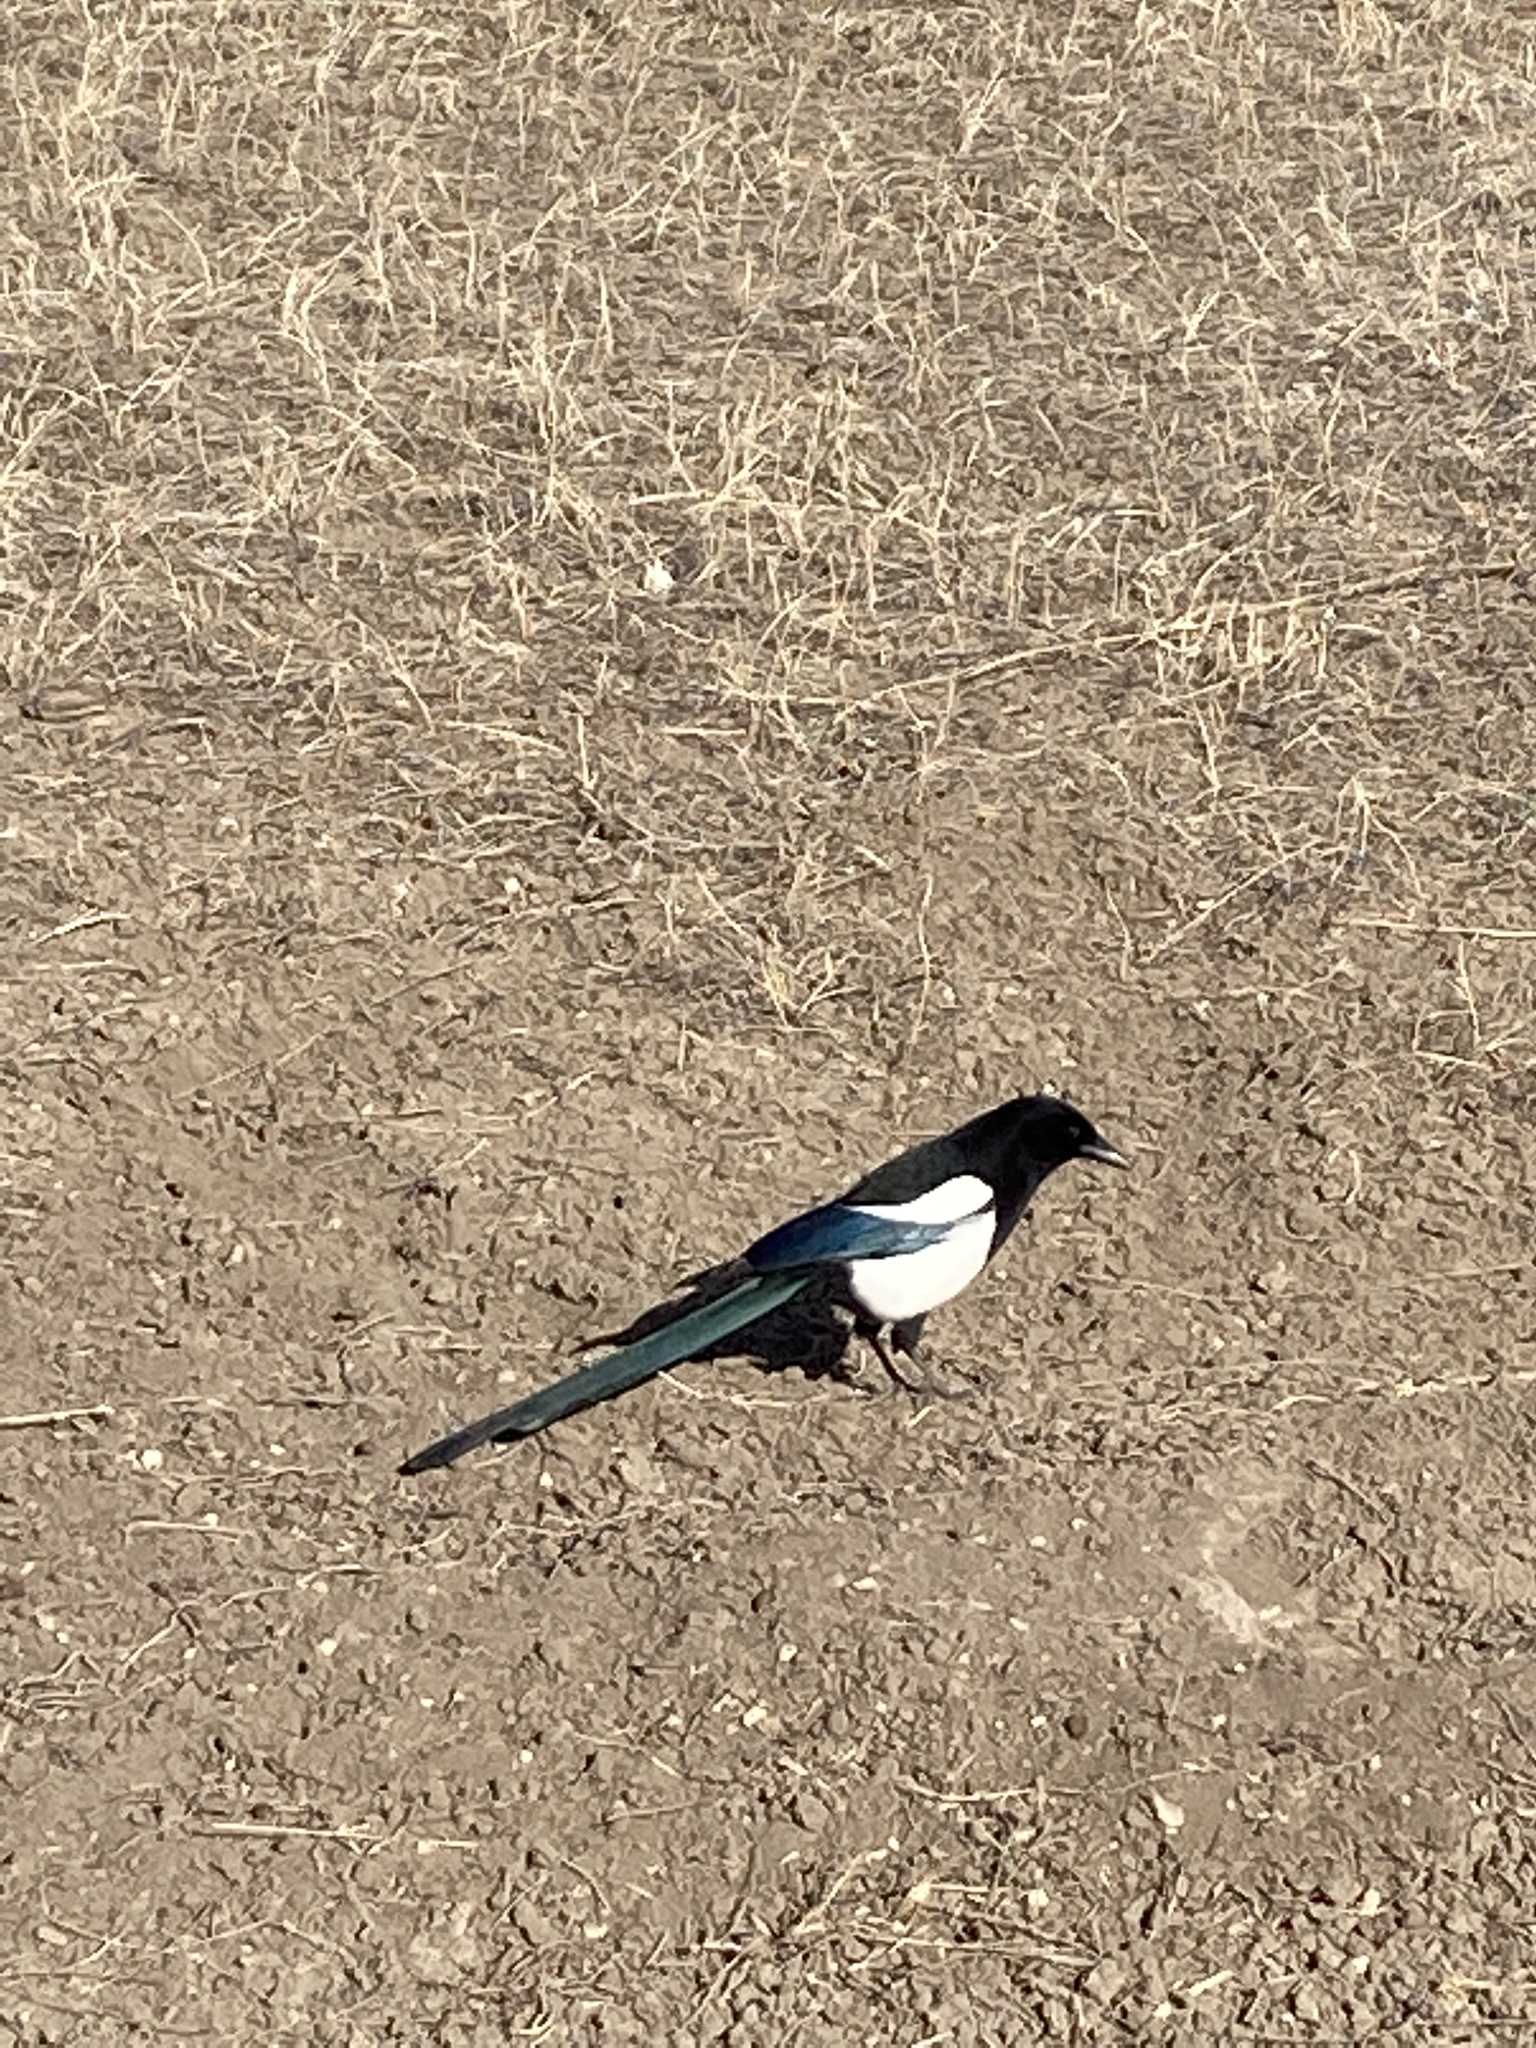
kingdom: Animalia
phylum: Chordata
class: Aves
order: Passeriformes
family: Corvidae
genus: Pica
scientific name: Pica hudsonia
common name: Black-billed magpie
